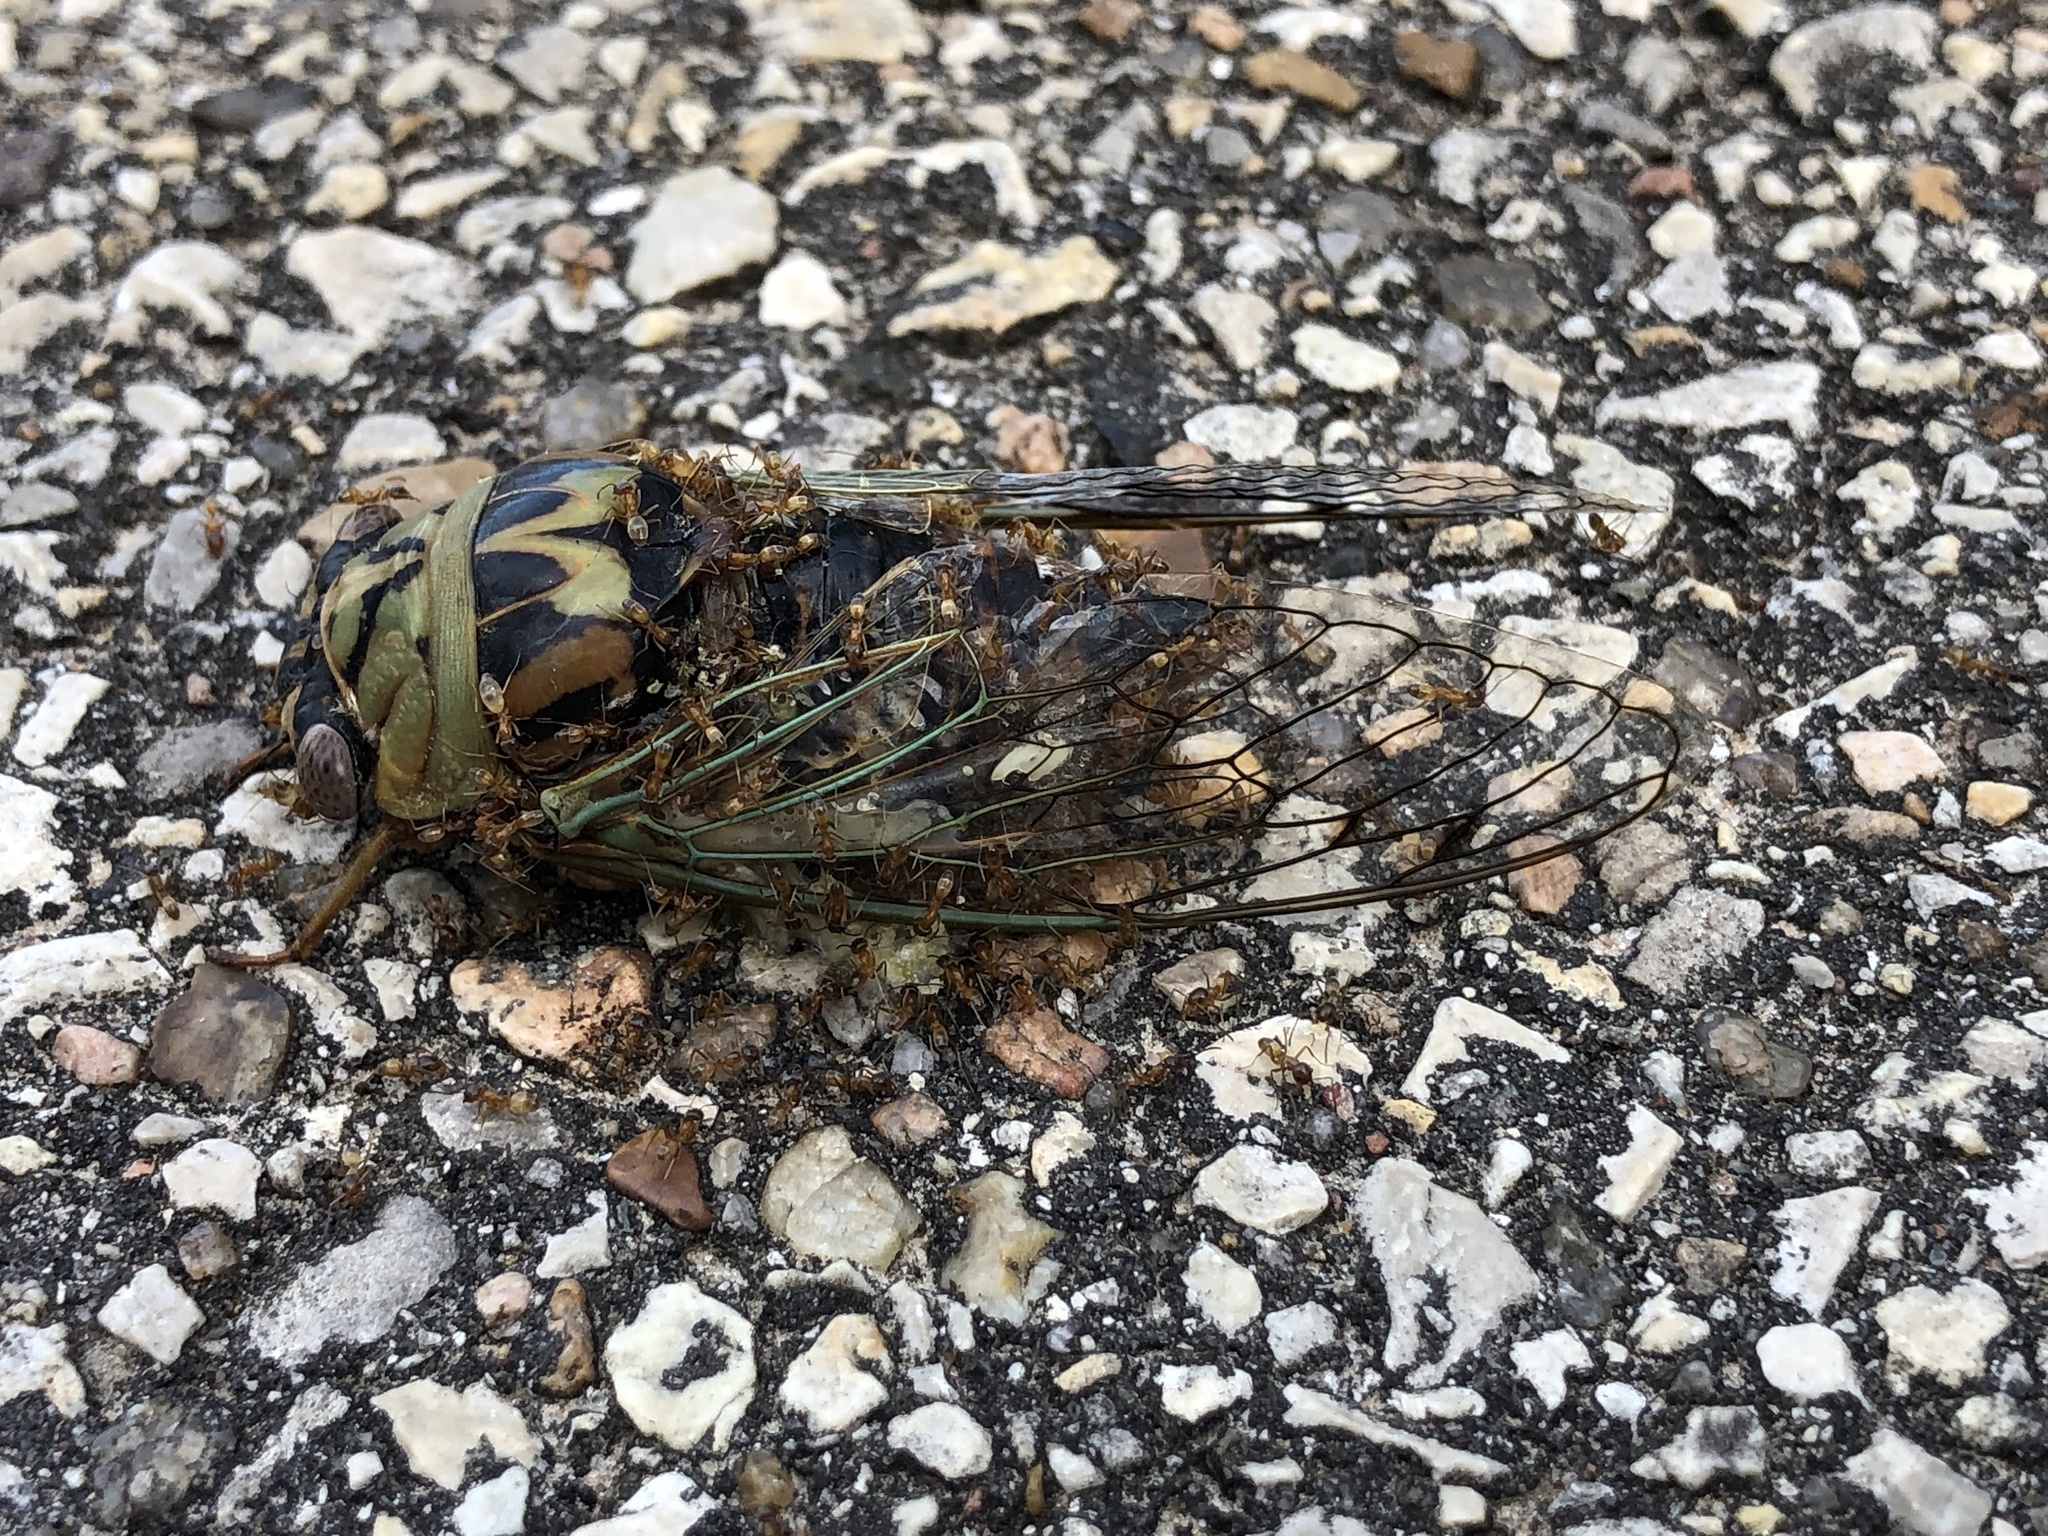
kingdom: Animalia
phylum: Arthropoda
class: Insecta
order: Hemiptera
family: Cicadidae
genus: Megatibicen
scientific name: Megatibicen resh
